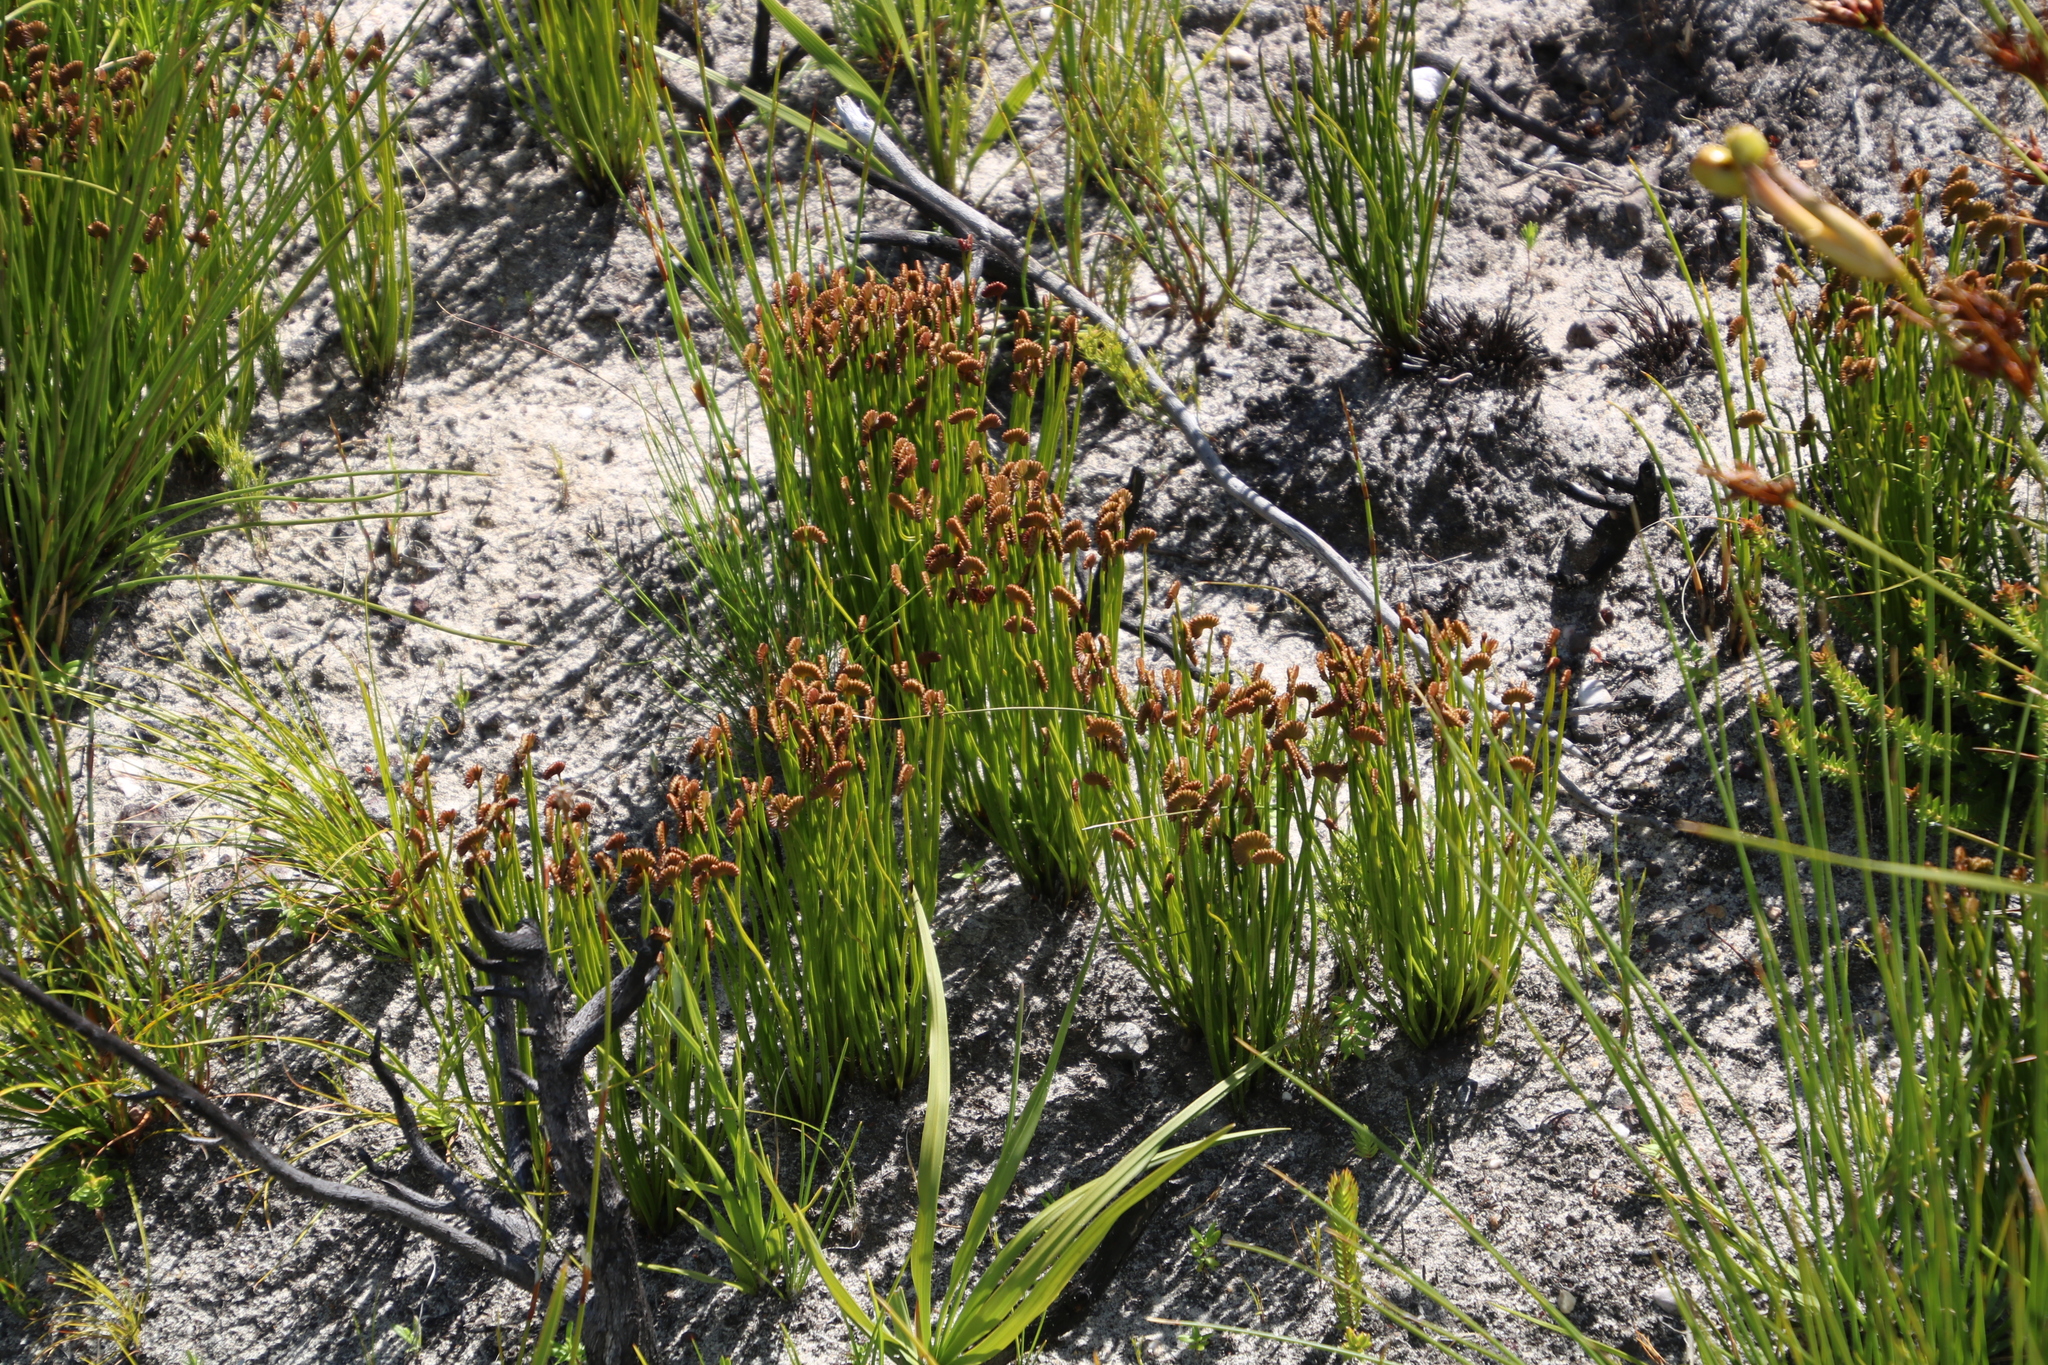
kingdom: Plantae
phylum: Tracheophyta
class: Polypodiopsida
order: Schizaeales
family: Schizaeaceae
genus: Schizaea
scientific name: Schizaea pectinata
